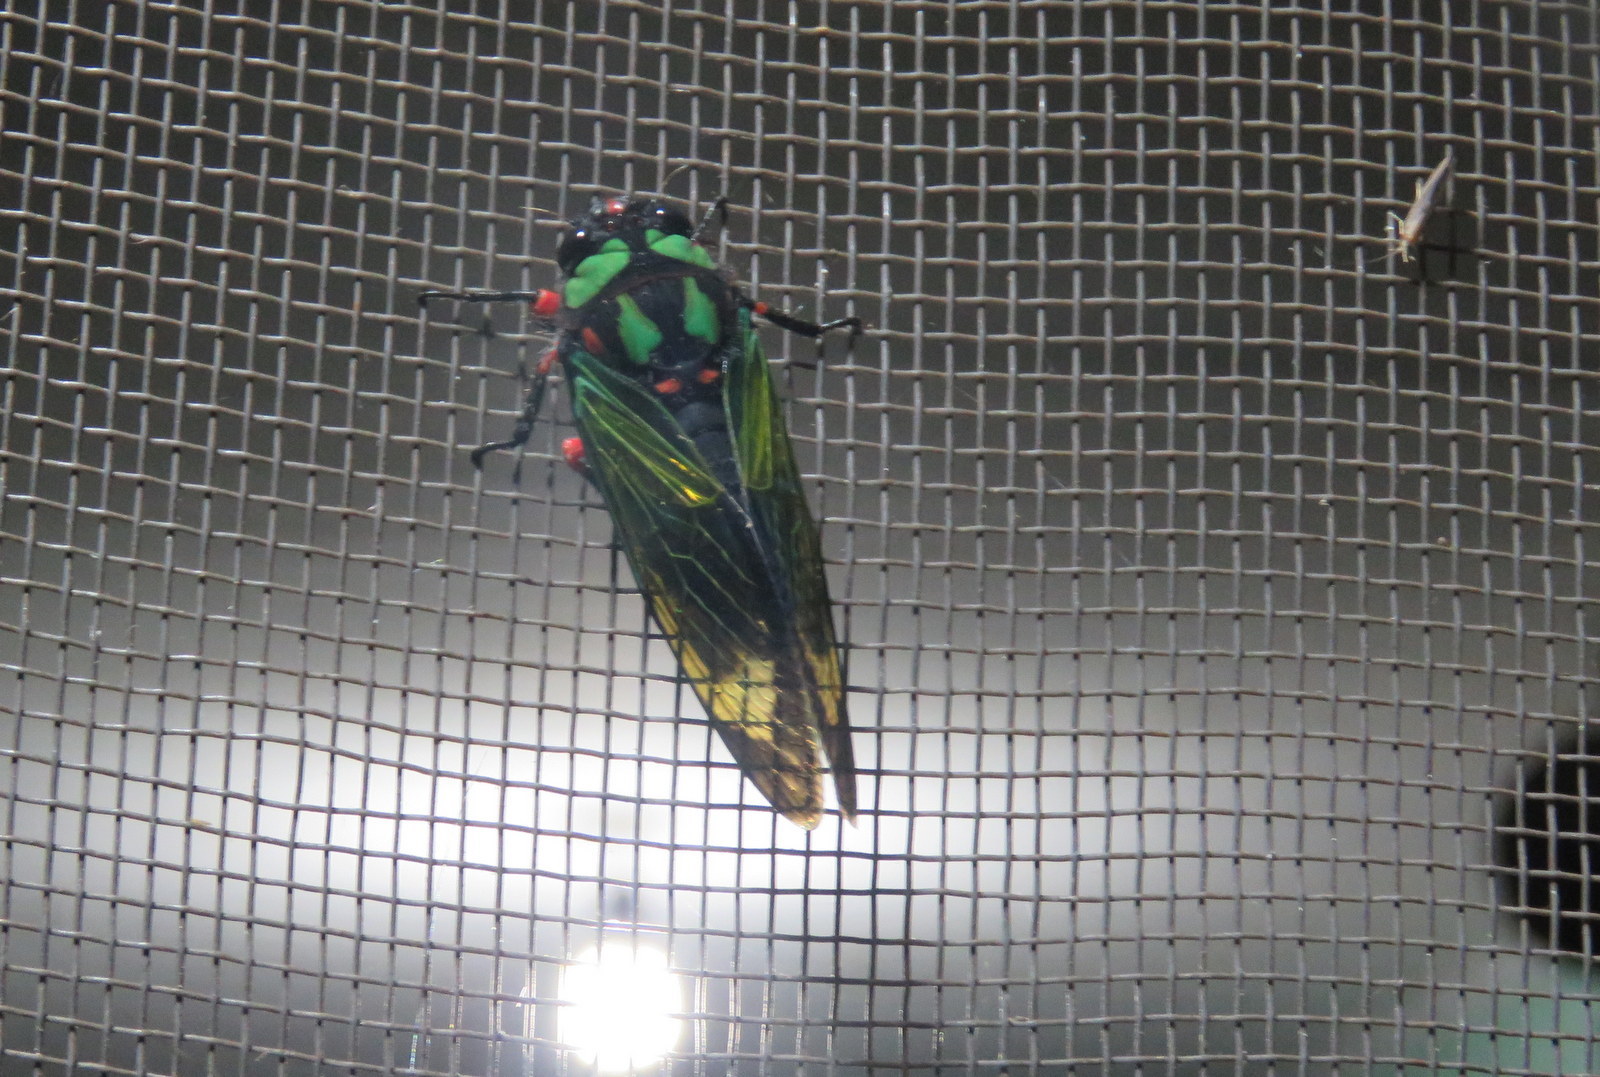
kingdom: Animalia
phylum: Arthropoda
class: Insecta
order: Hemiptera
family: Cicadidae
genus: Carineta
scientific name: Carineta diardi
